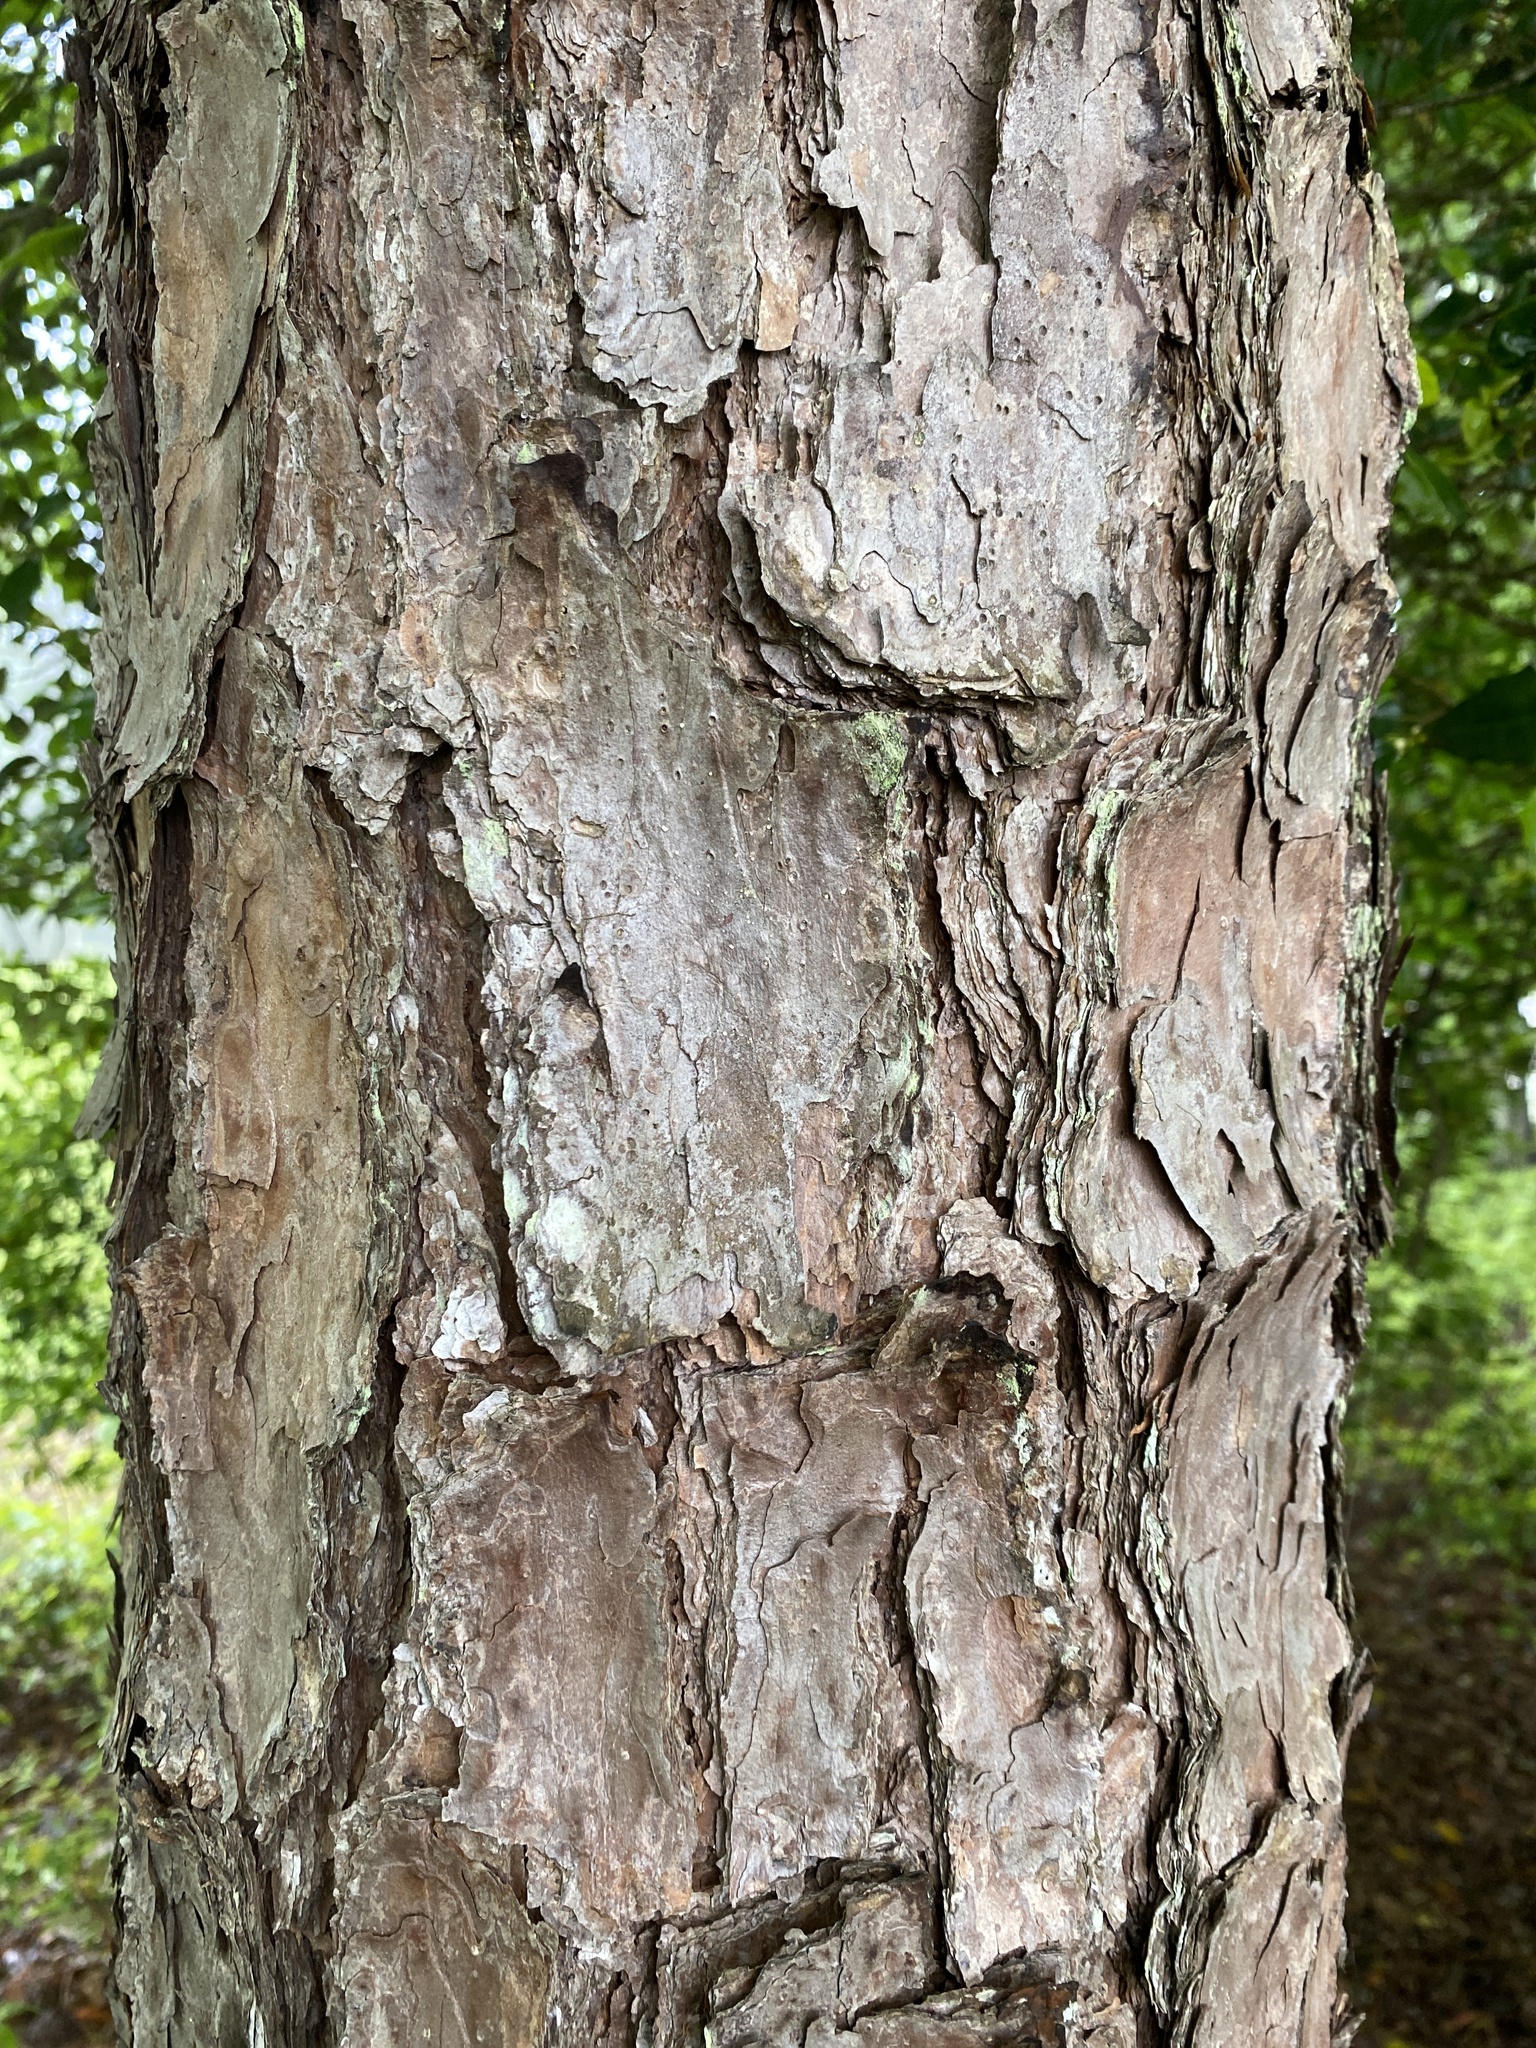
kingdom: Plantae
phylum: Tracheophyta
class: Pinopsida
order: Pinales
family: Pinaceae
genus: Pinus
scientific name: Pinus echinata
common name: Shortleaf pine
